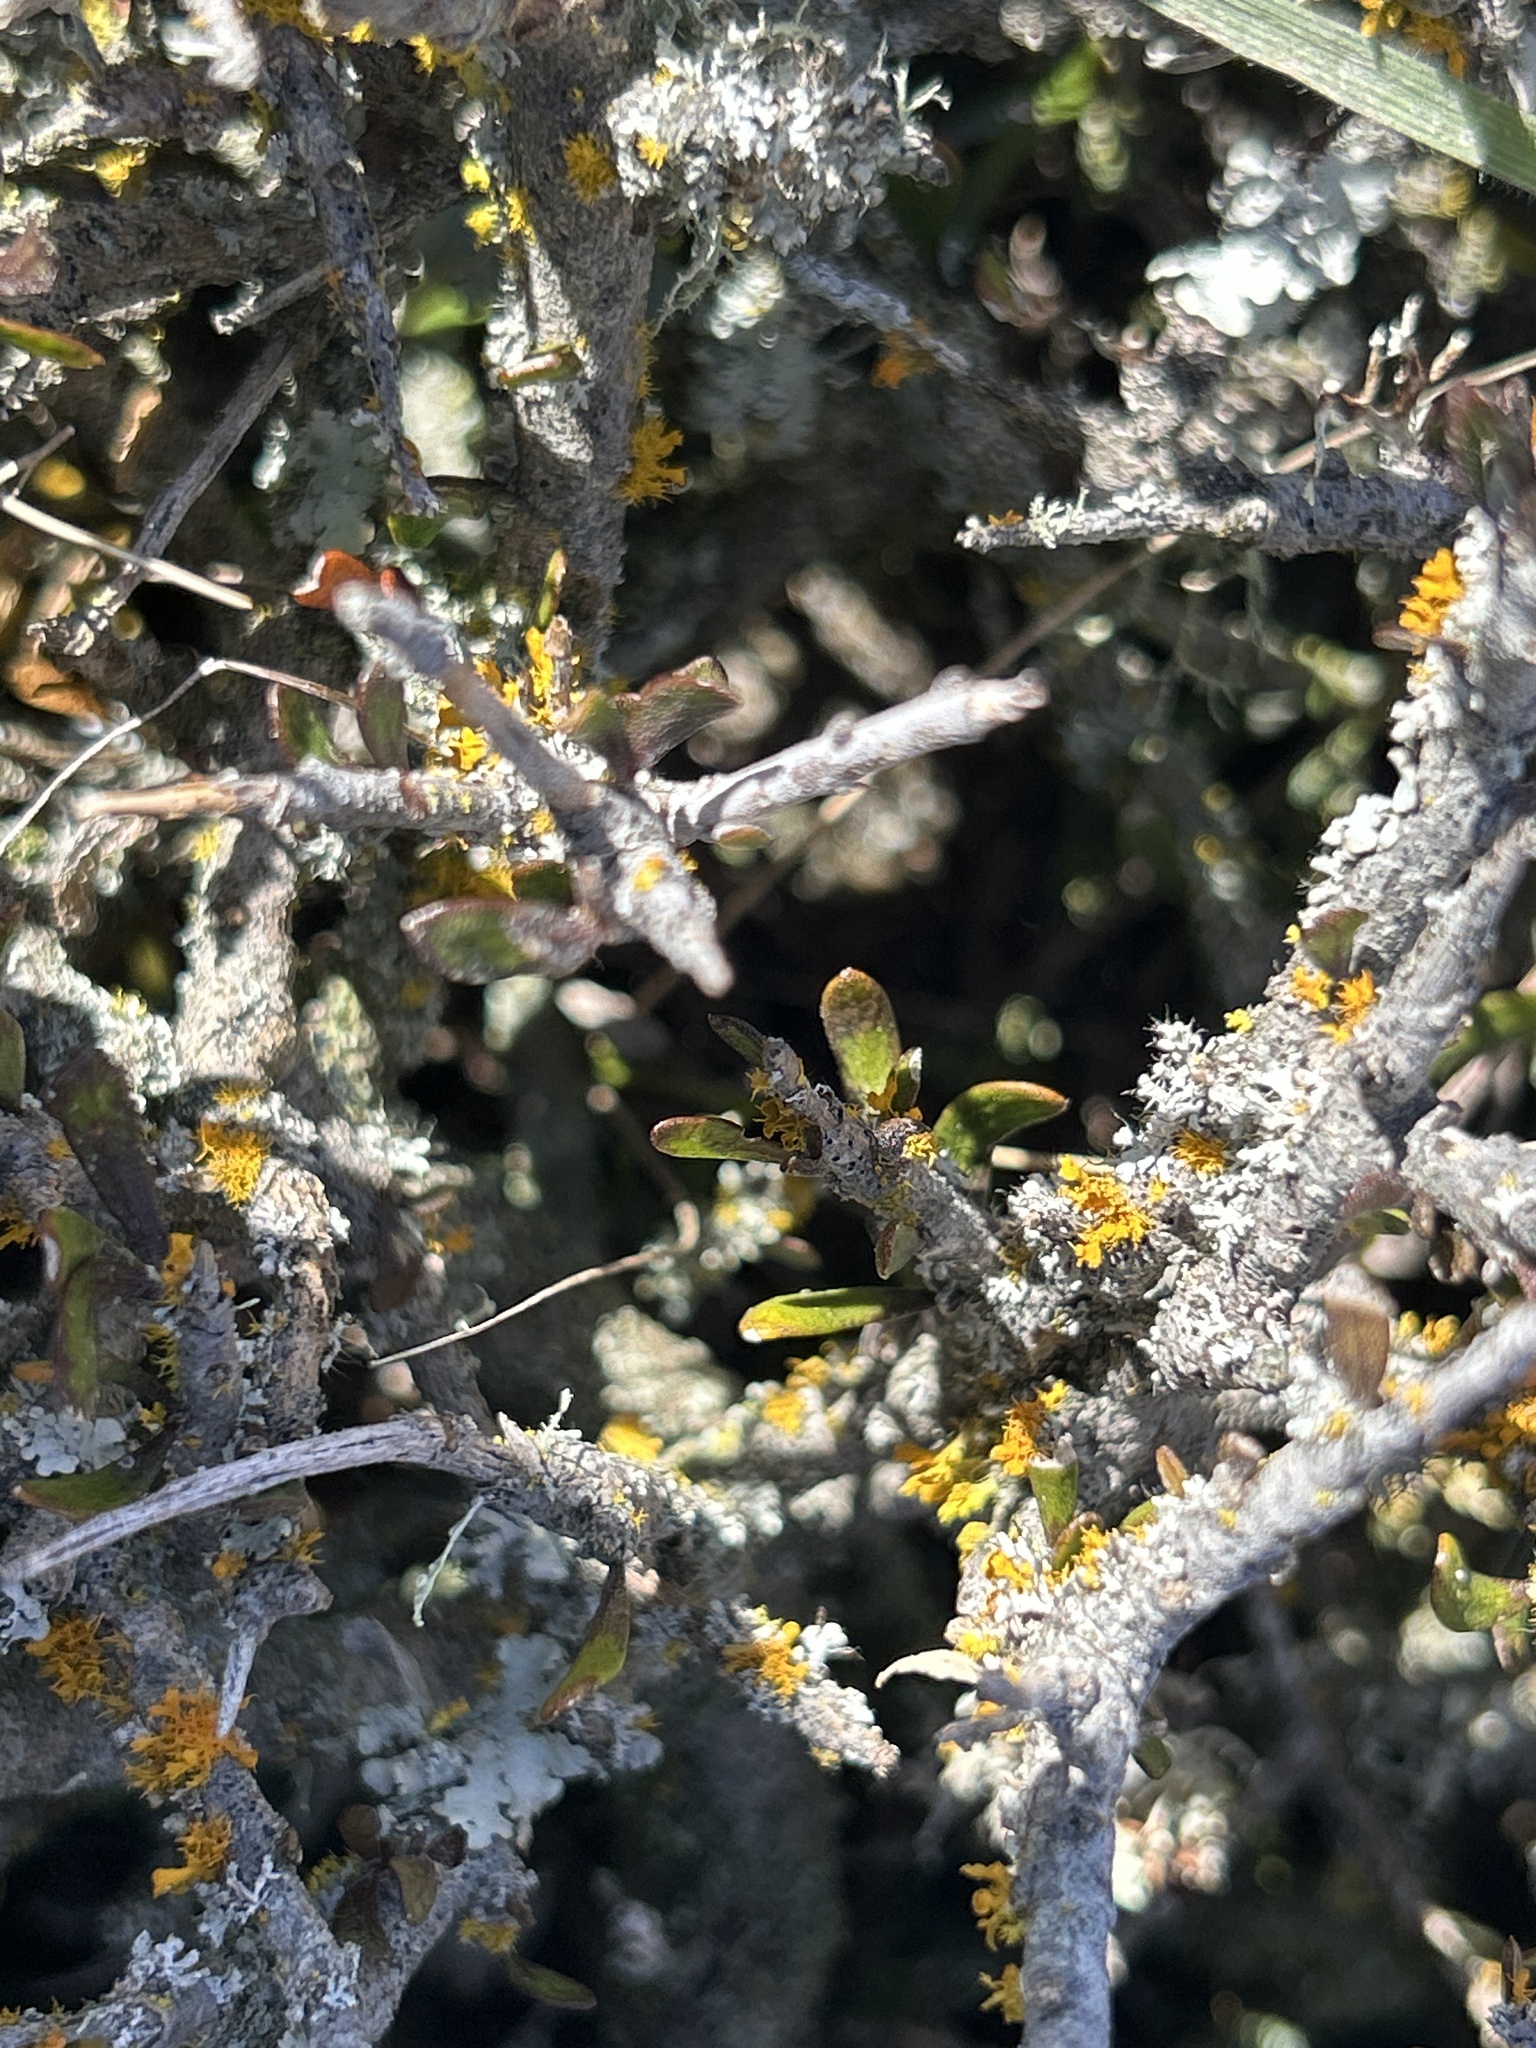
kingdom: Plantae
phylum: Tracheophyta
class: Magnoliopsida
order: Malpighiales
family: Violaceae
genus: Melicytus
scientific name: Melicytus alpinus
